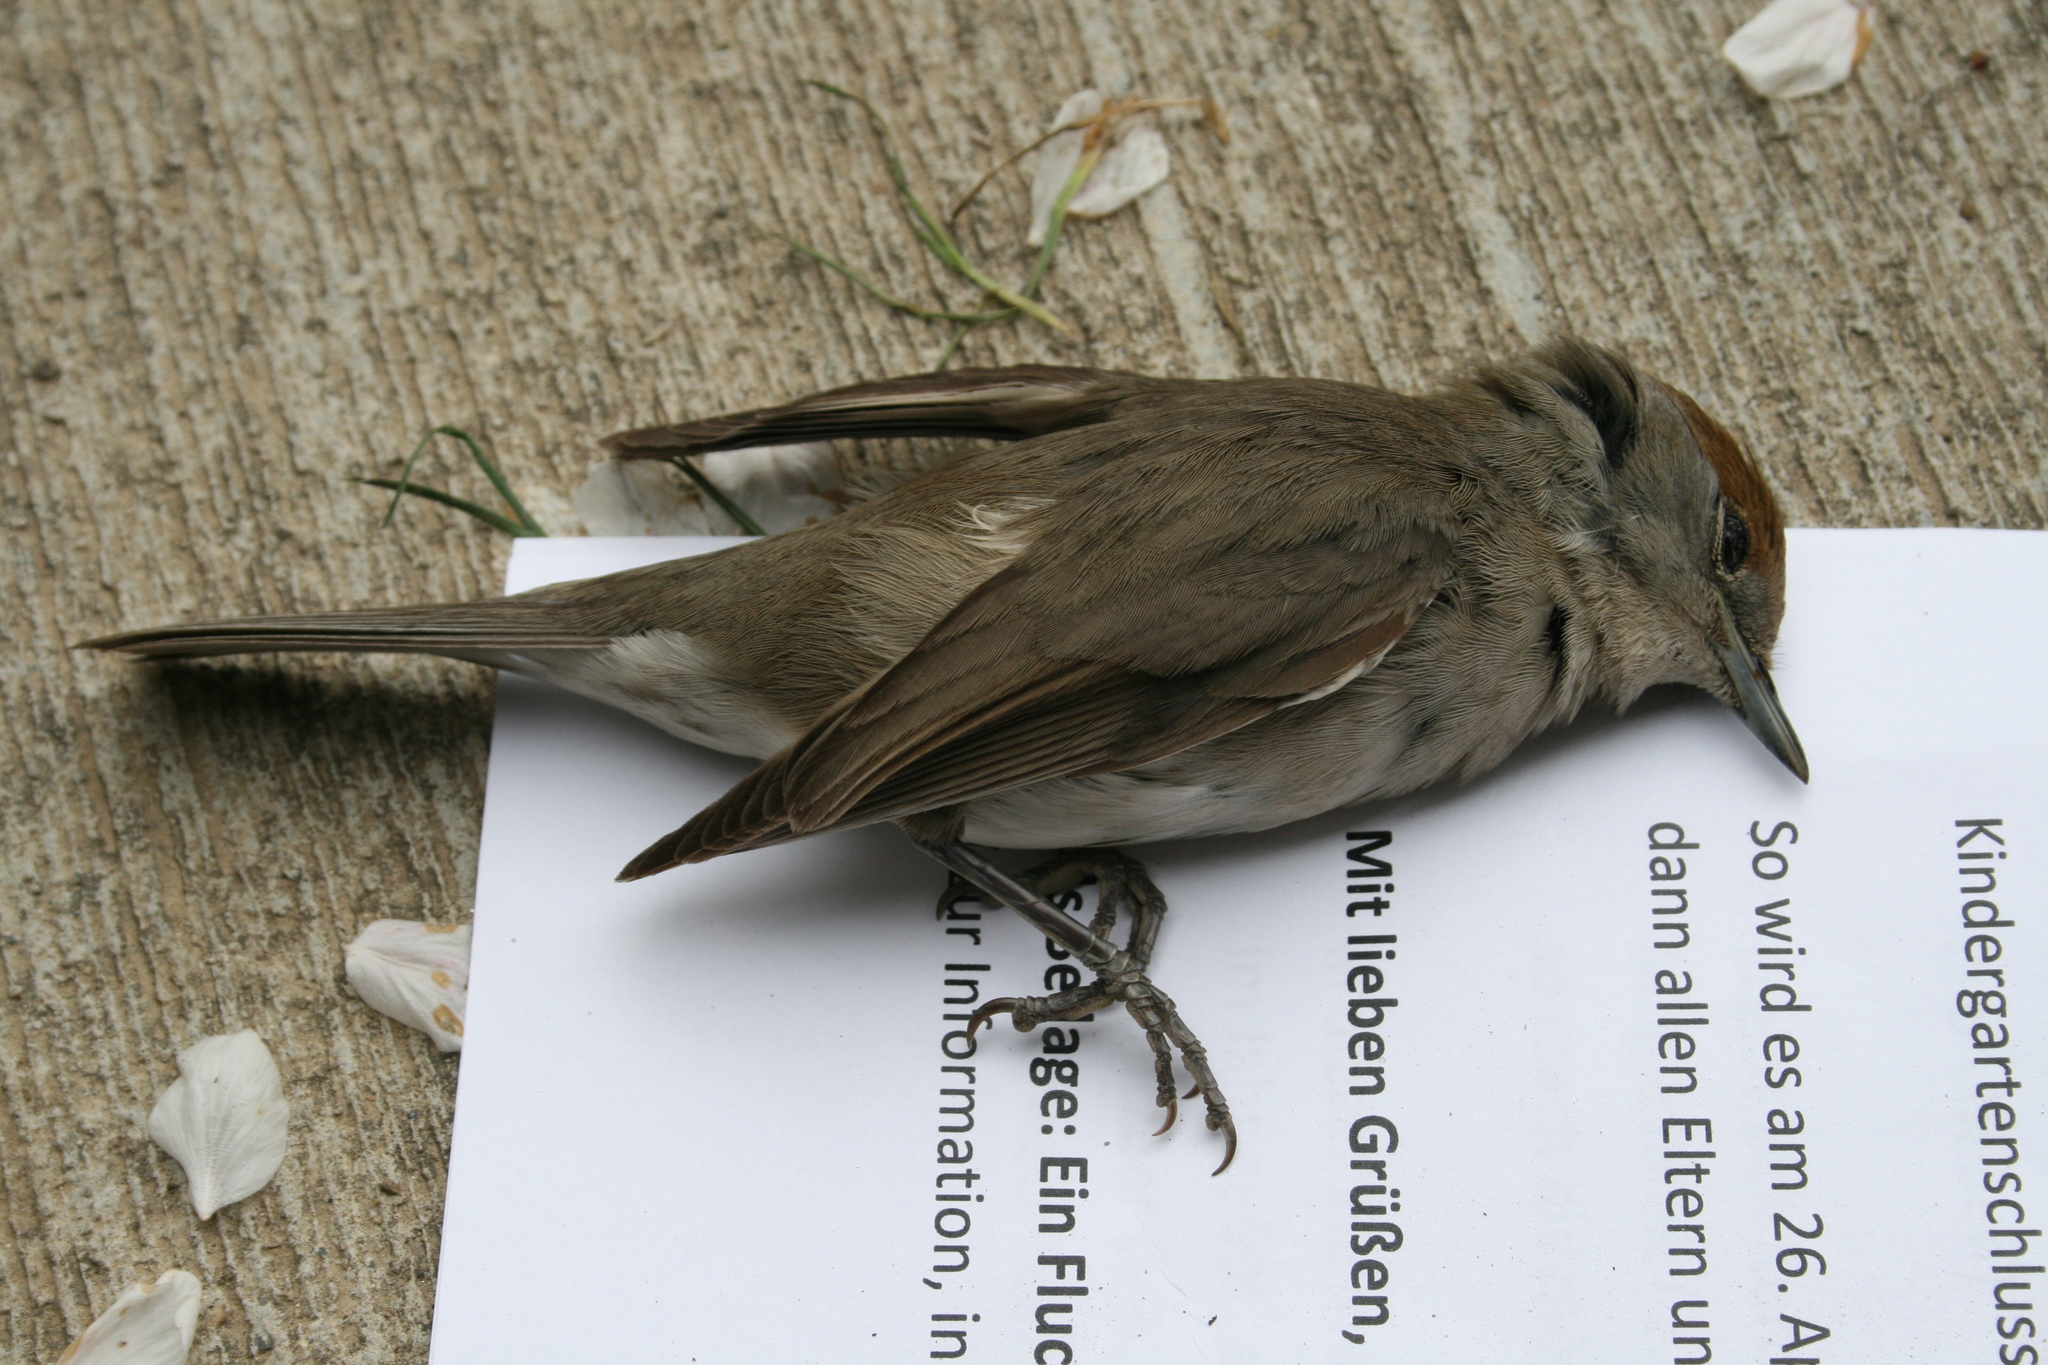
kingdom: Animalia
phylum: Chordata
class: Aves
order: Passeriformes
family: Sylviidae
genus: Sylvia
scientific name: Sylvia atricapilla
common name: Eurasian blackcap
